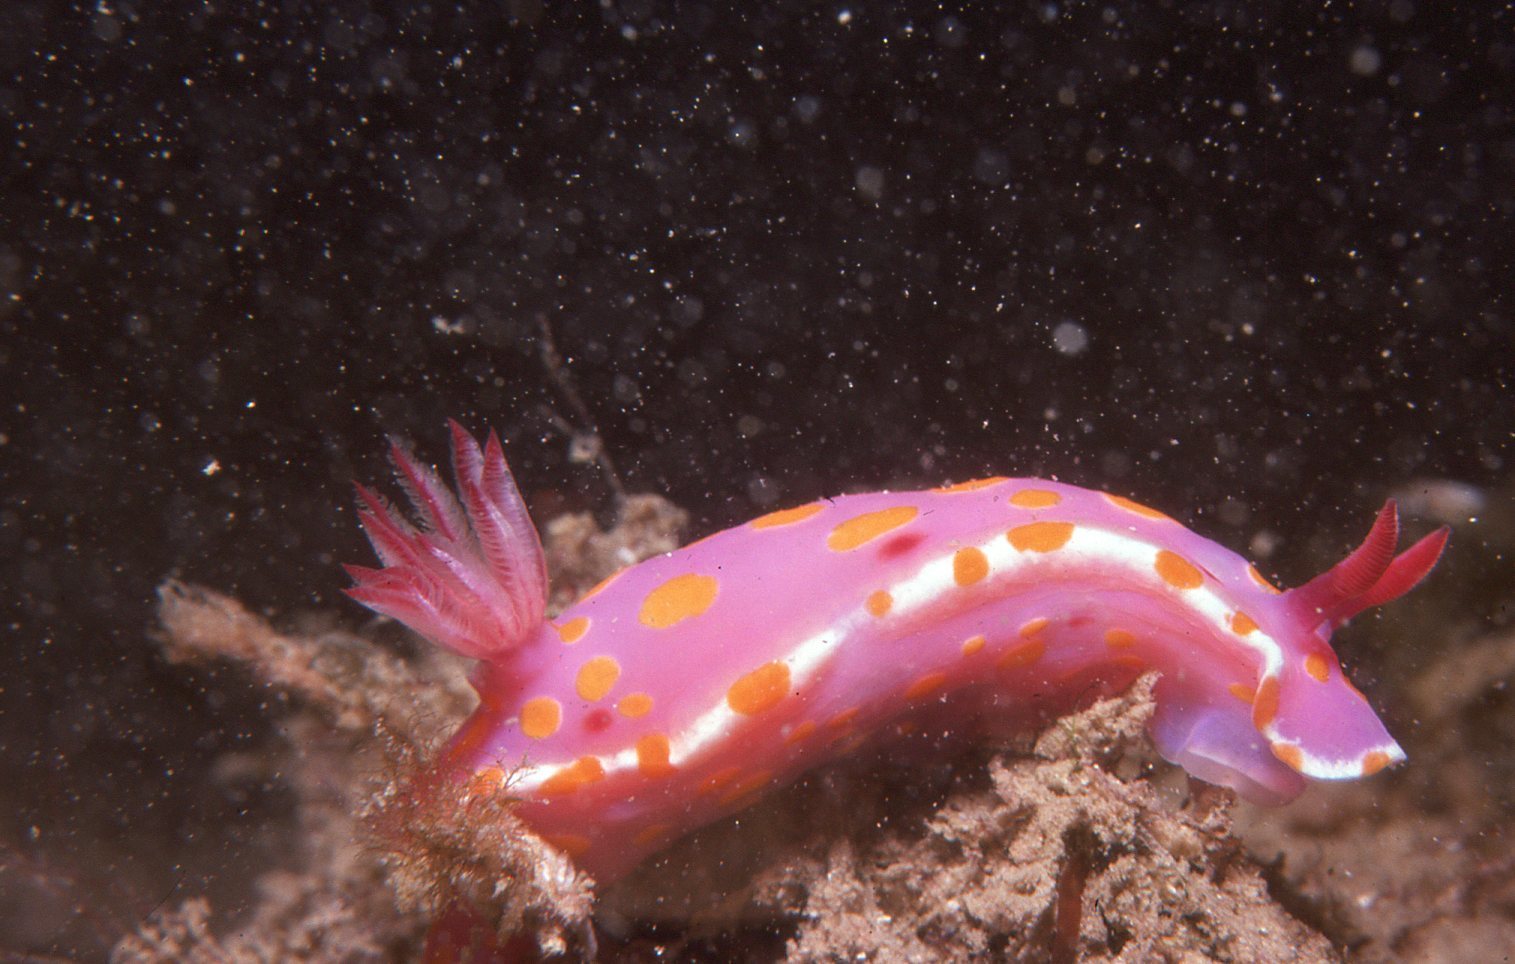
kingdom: Animalia
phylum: Mollusca
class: Gastropoda
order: Nudibranchia
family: Chromodorididae
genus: Ceratosoma
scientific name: Ceratosoma amoenum
